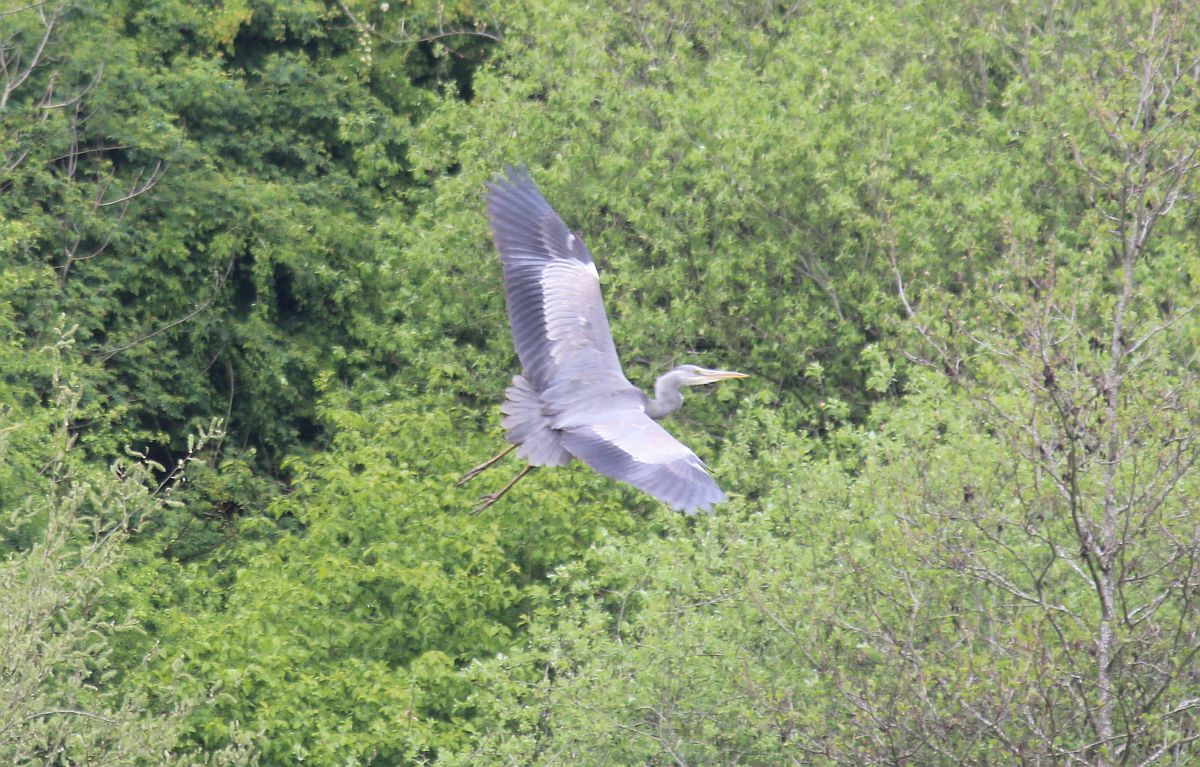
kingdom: Animalia
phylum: Chordata
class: Aves
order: Pelecaniformes
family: Ardeidae
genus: Ardea
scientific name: Ardea cinerea
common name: Grey heron
